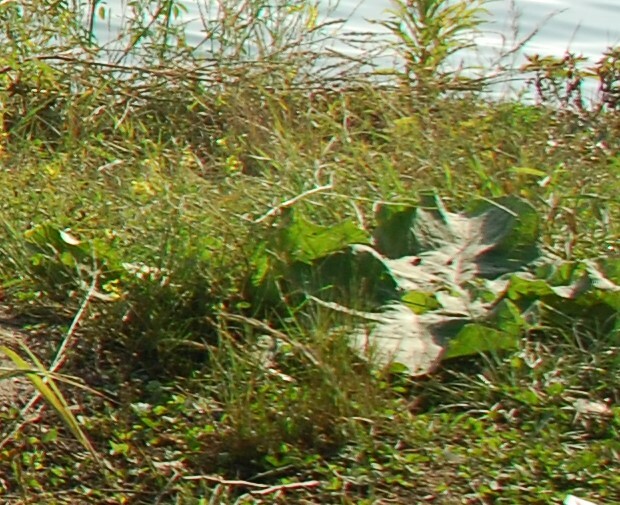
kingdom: Plantae
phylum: Tracheophyta
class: Magnoliopsida
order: Asterales
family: Asteraceae
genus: Arctium
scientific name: Arctium tomentosum
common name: Woolly burdock
